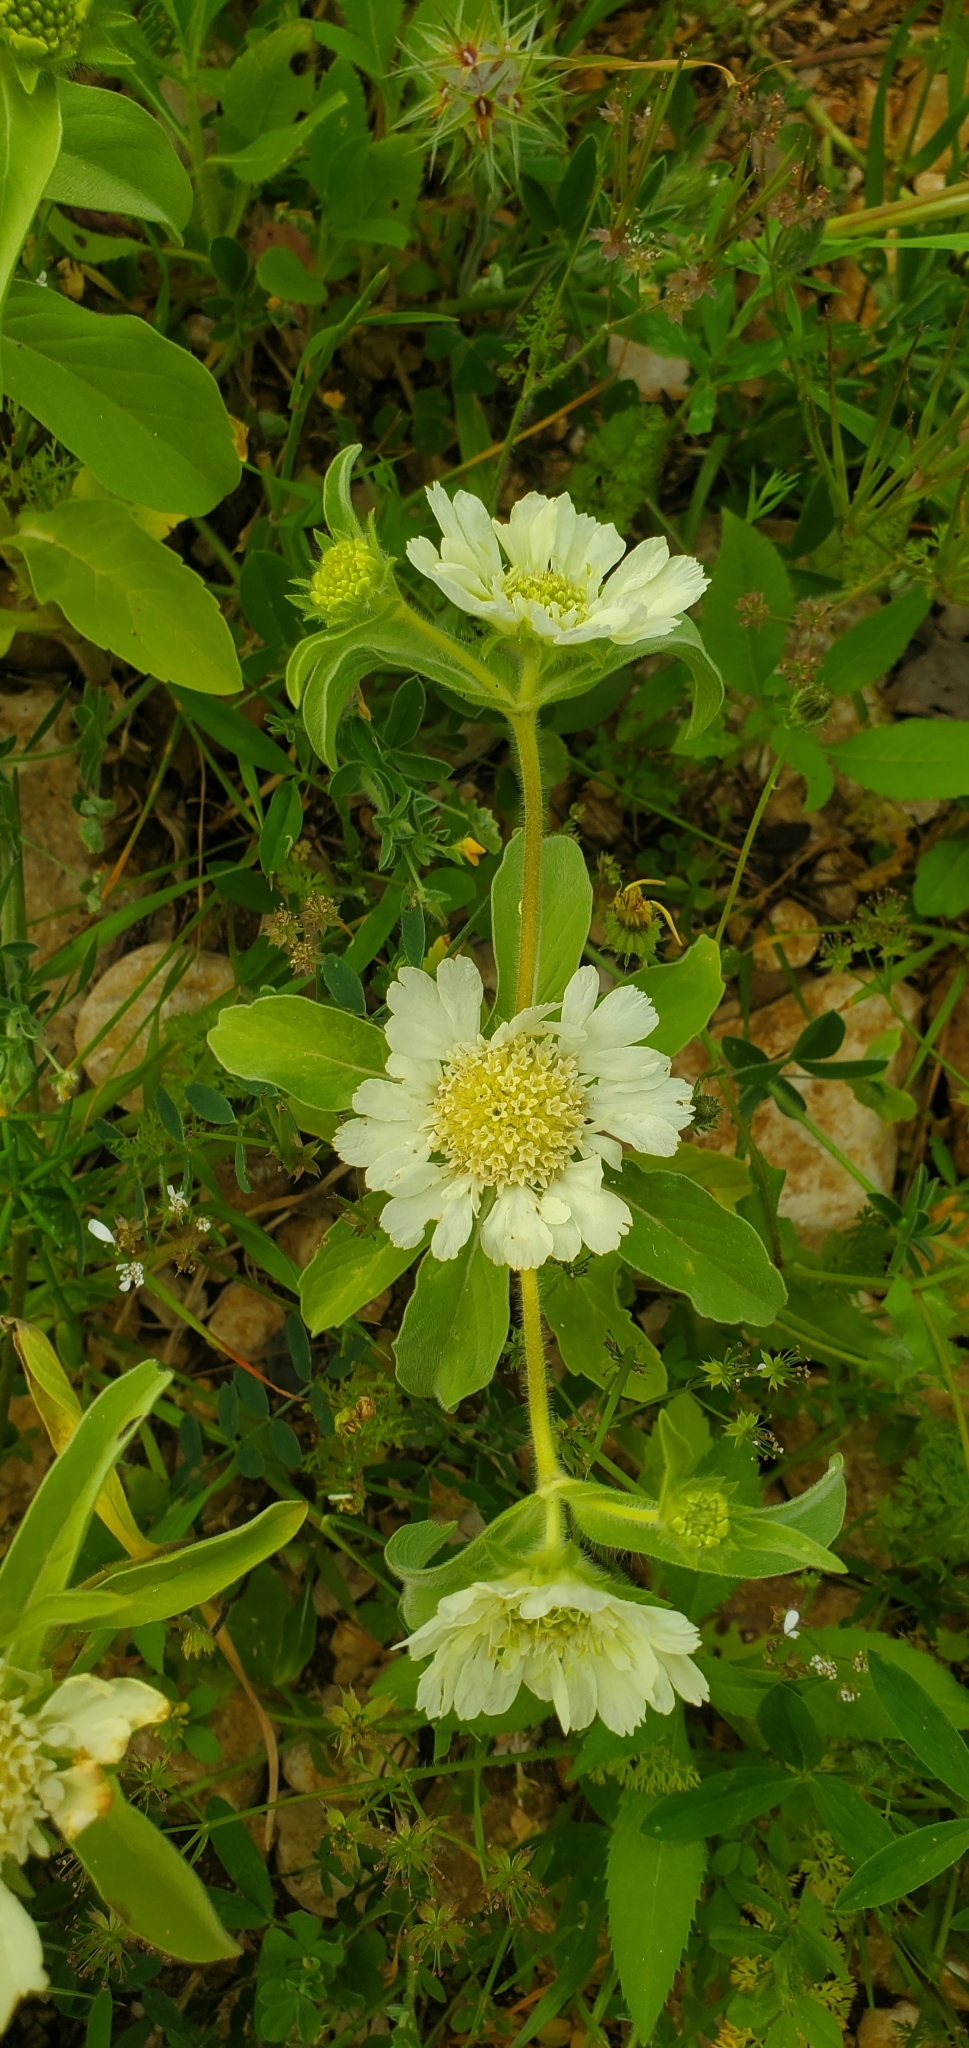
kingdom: Plantae
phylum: Tracheophyta
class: Magnoliopsida
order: Dipsacales
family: Caprifoliaceae
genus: Lomelosia
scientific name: Lomelosia prolifera
